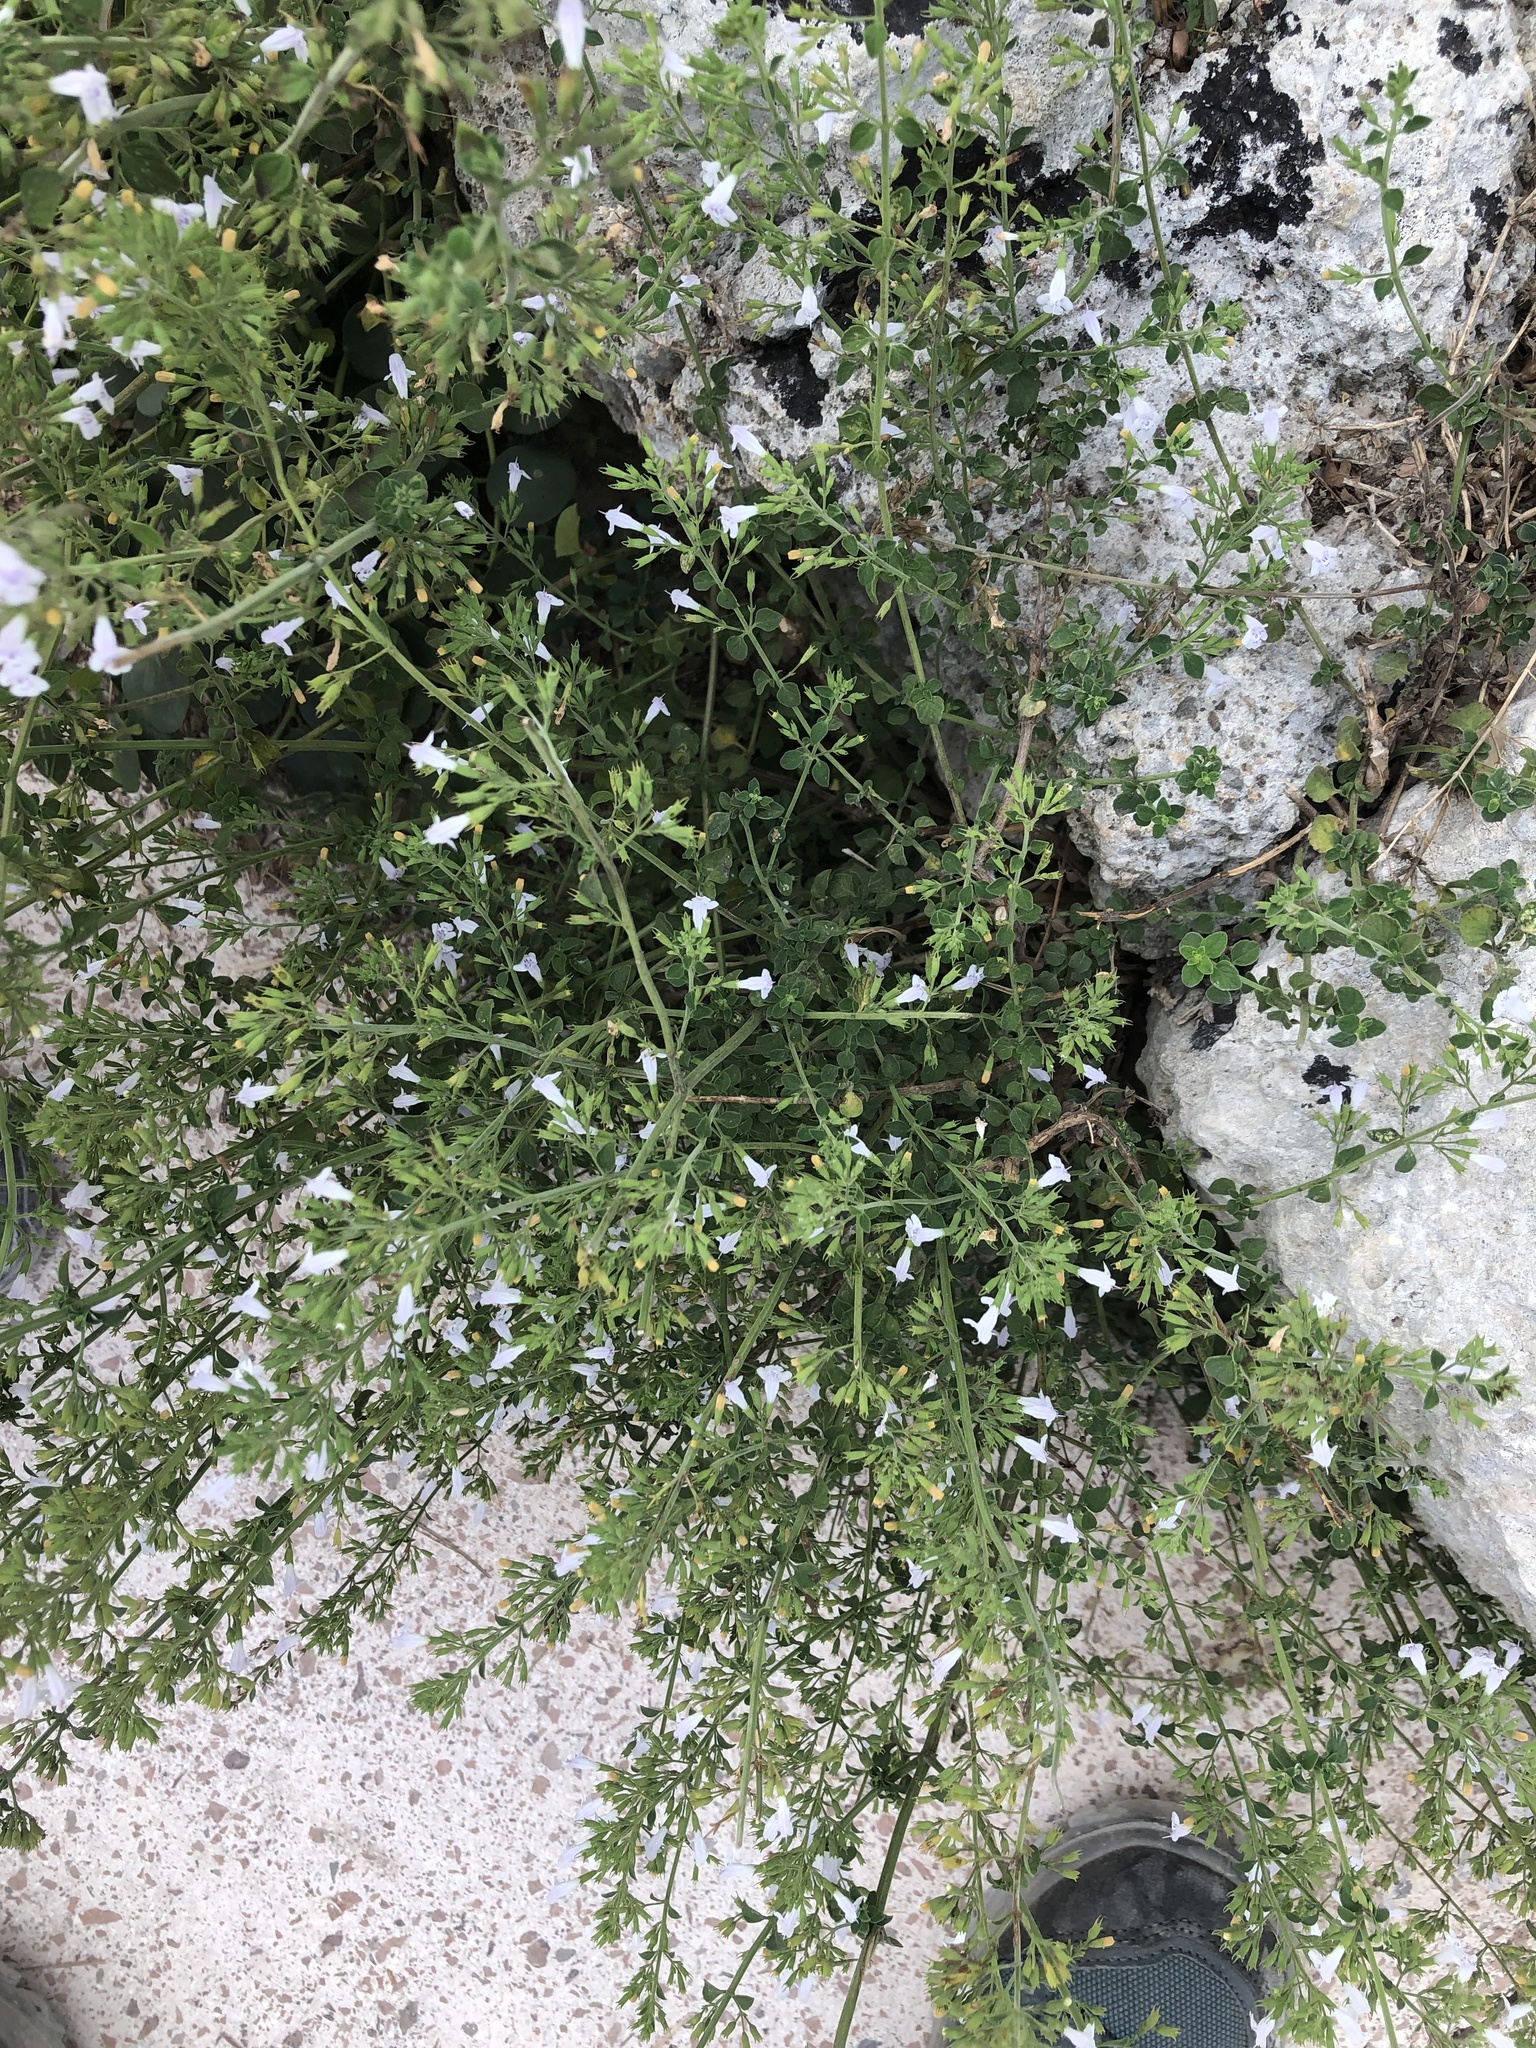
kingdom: Plantae
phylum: Tracheophyta
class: Magnoliopsida
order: Lamiales
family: Lamiaceae
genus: Clinopodium
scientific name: Clinopodium nepeta
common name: Lesser calamint
